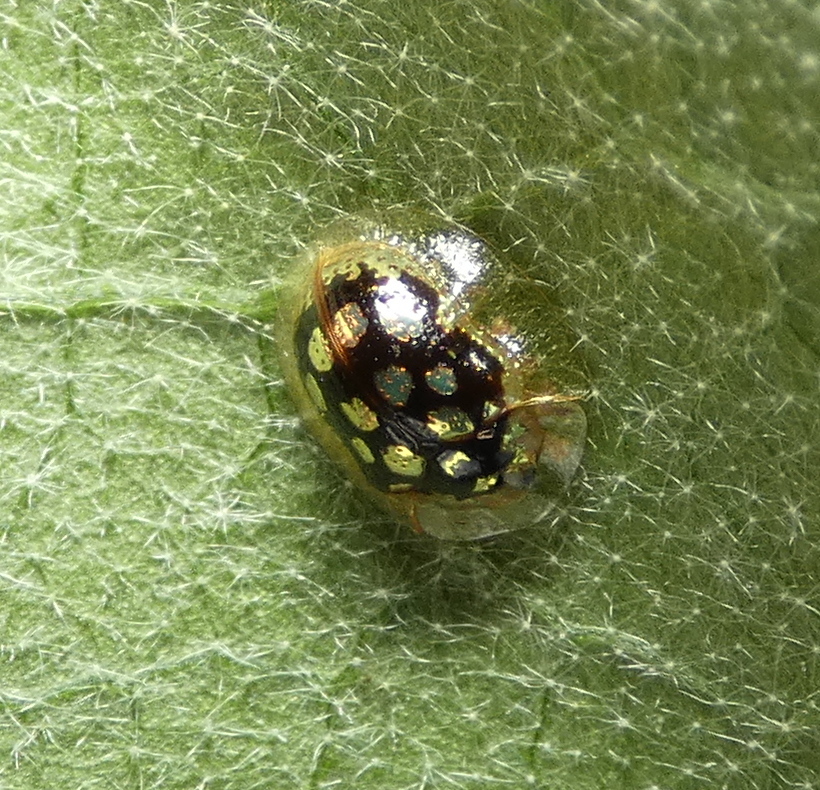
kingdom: Animalia
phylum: Arthropoda
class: Insecta
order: Coleoptera
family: Chrysomelidae
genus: Plagiometriona
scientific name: Plagiometriona microcera
